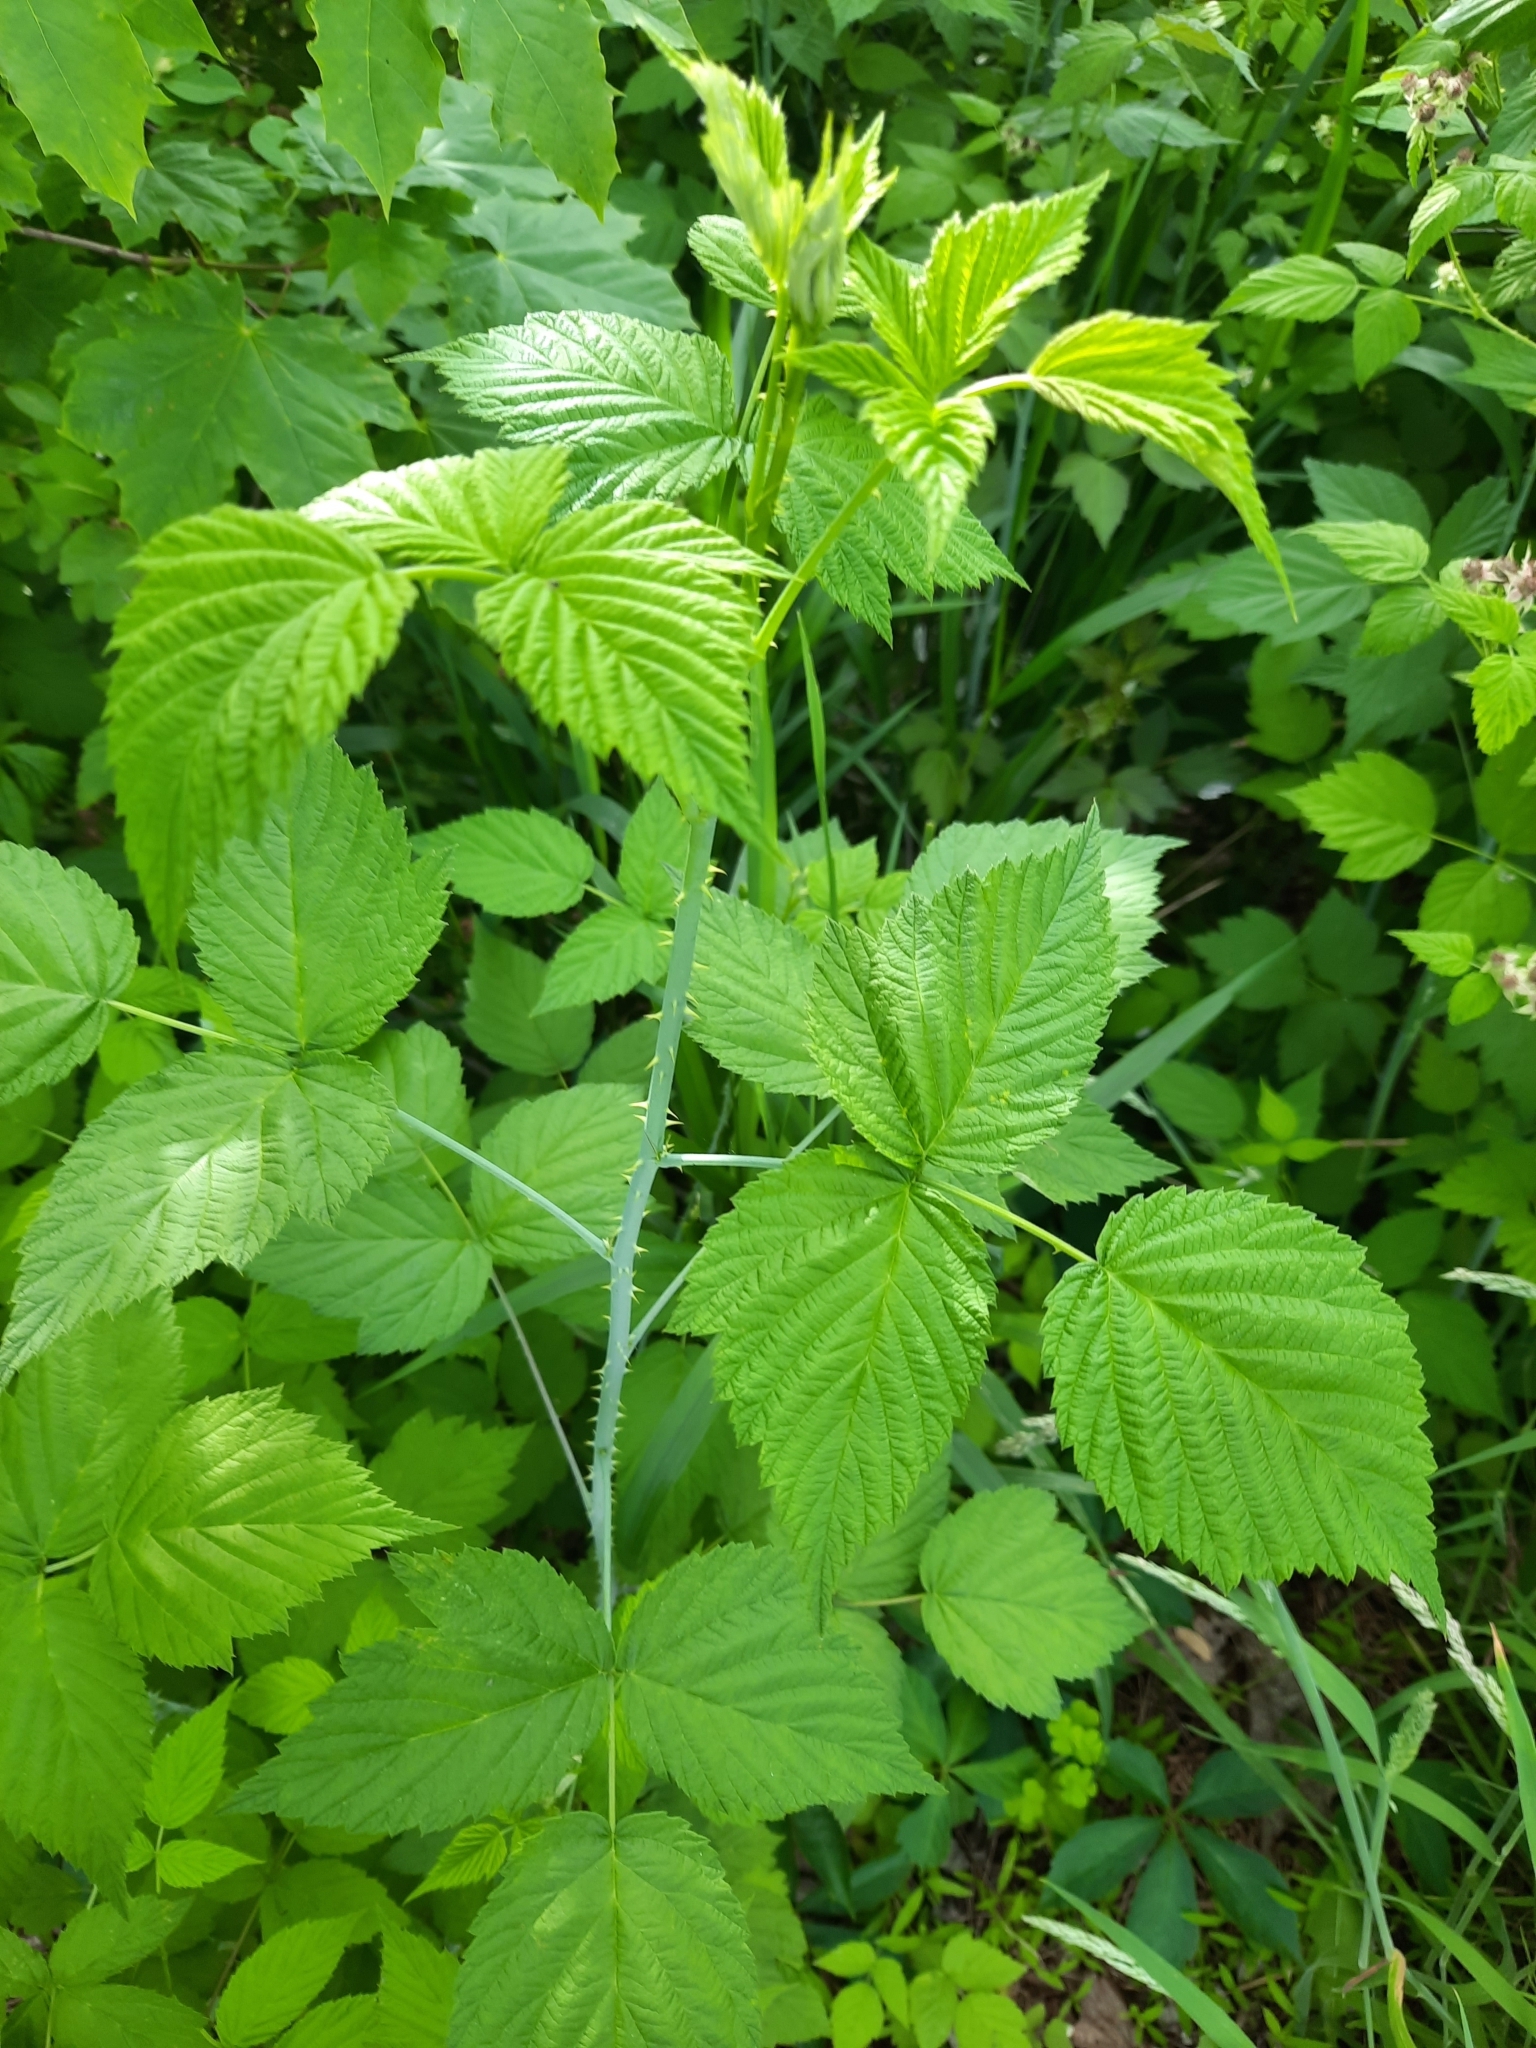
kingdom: Plantae
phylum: Tracheophyta
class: Magnoliopsida
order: Rosales
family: Rosaceae
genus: Rubus
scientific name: Rubus occidentalis
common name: Black raspberry
